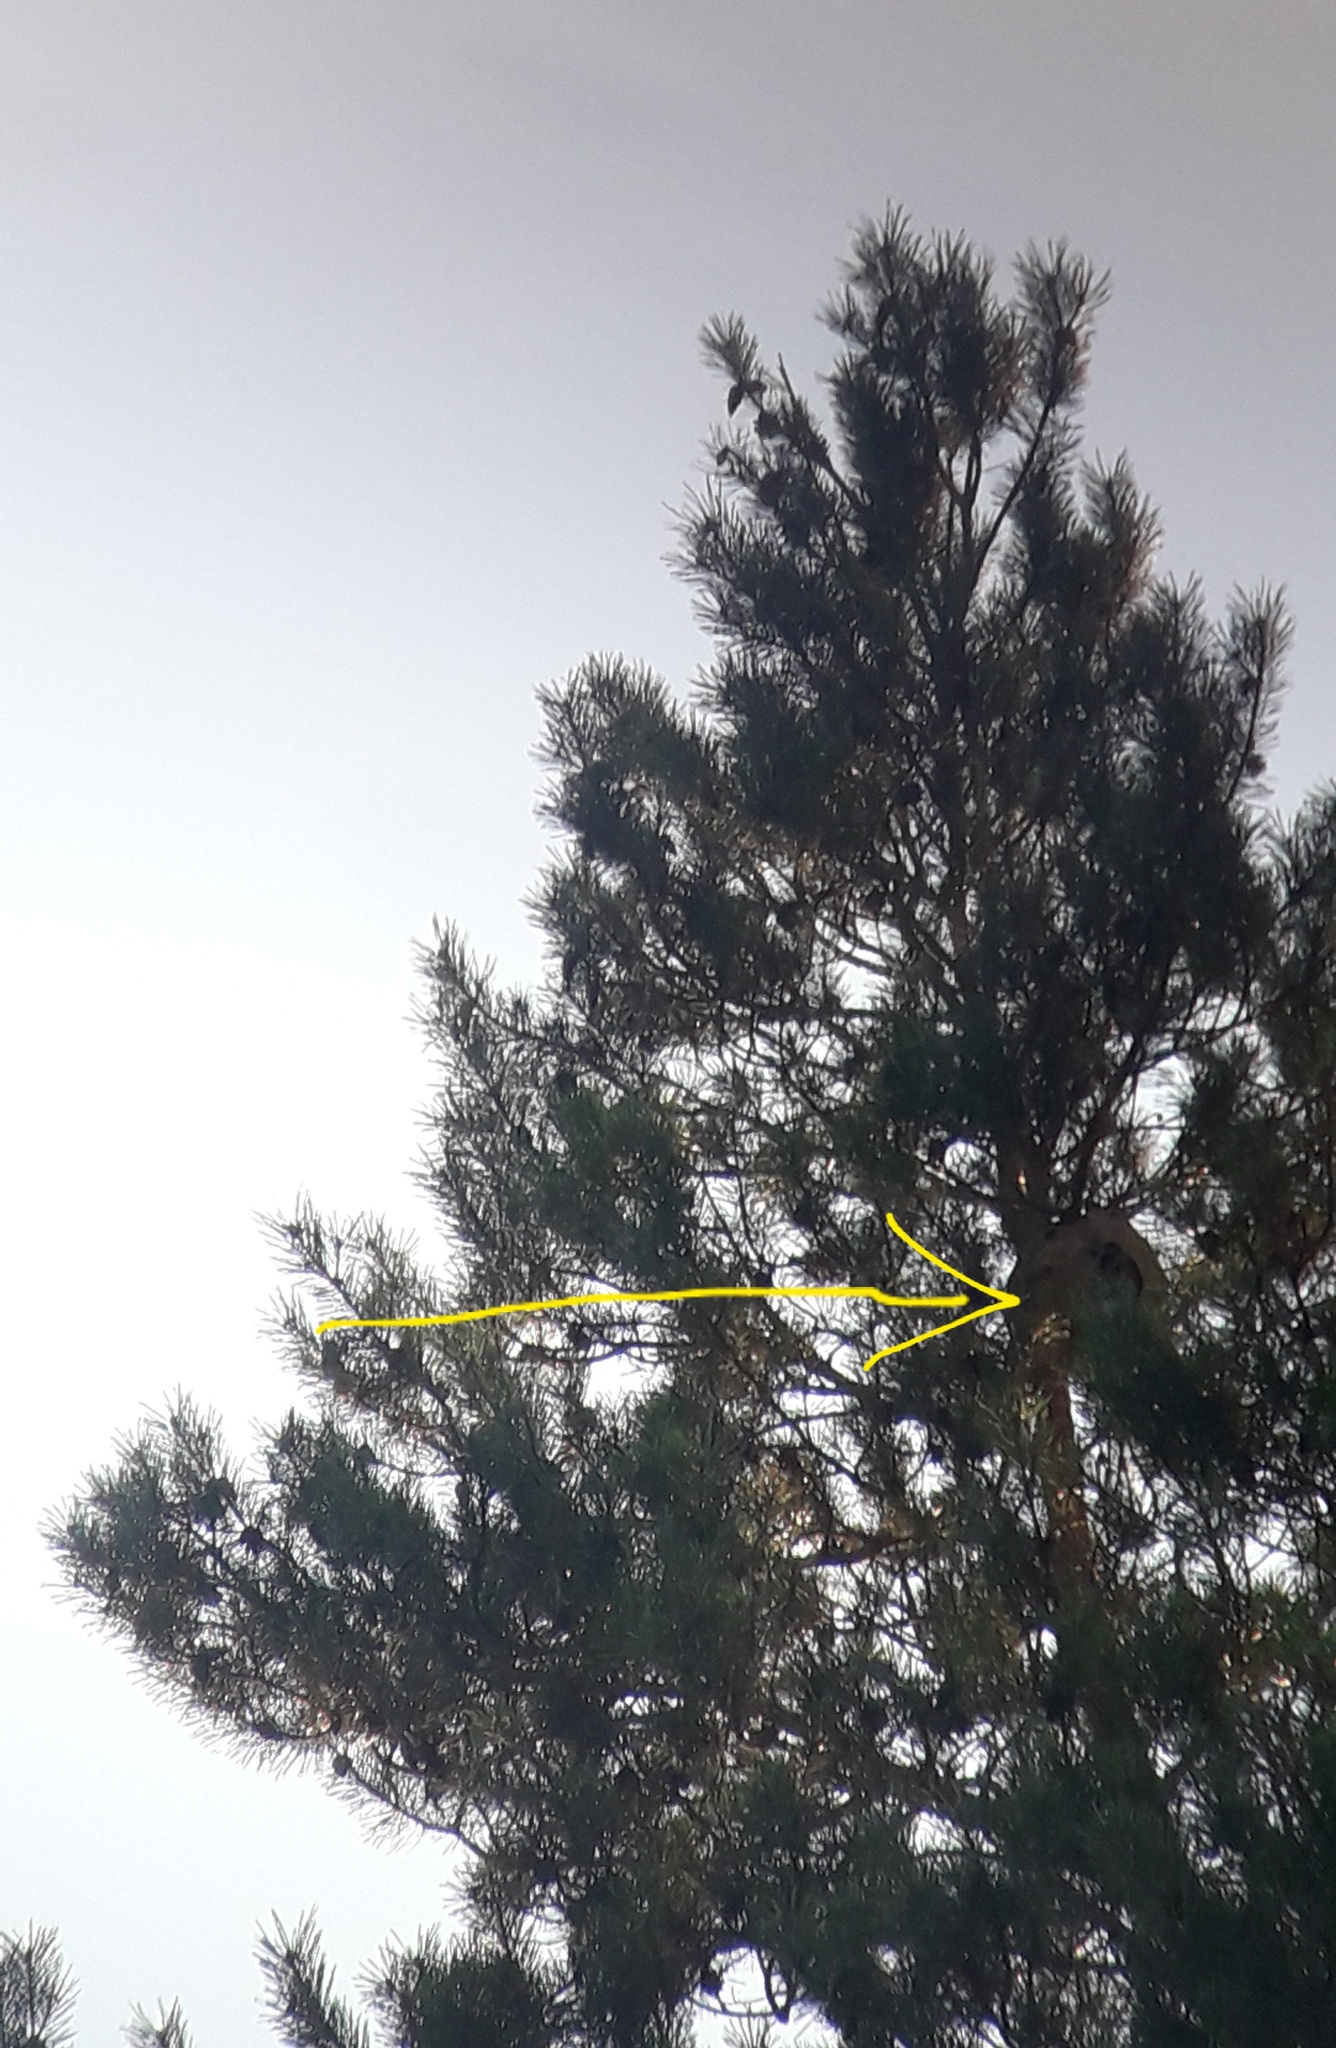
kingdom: Animalia
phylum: Arthropoda
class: Insecta
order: Hymenoptera
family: Vespidae
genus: Vespa
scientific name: Vespa velutina
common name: Asian hornet
